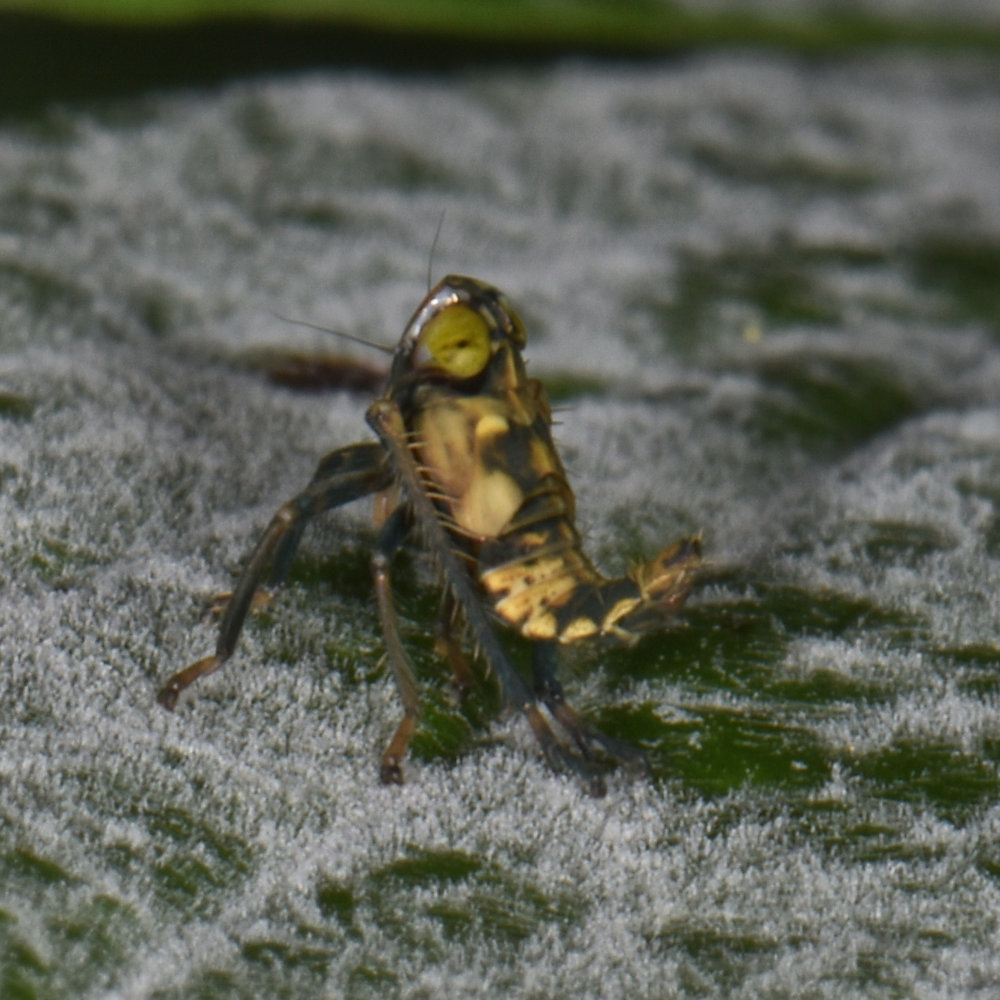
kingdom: Animalia
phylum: Arthropoda
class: Insecta
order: Hemiptera
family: Cicadellidae
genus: Jikradia
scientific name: Jikradia olitoria
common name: Coppery leafhopper
